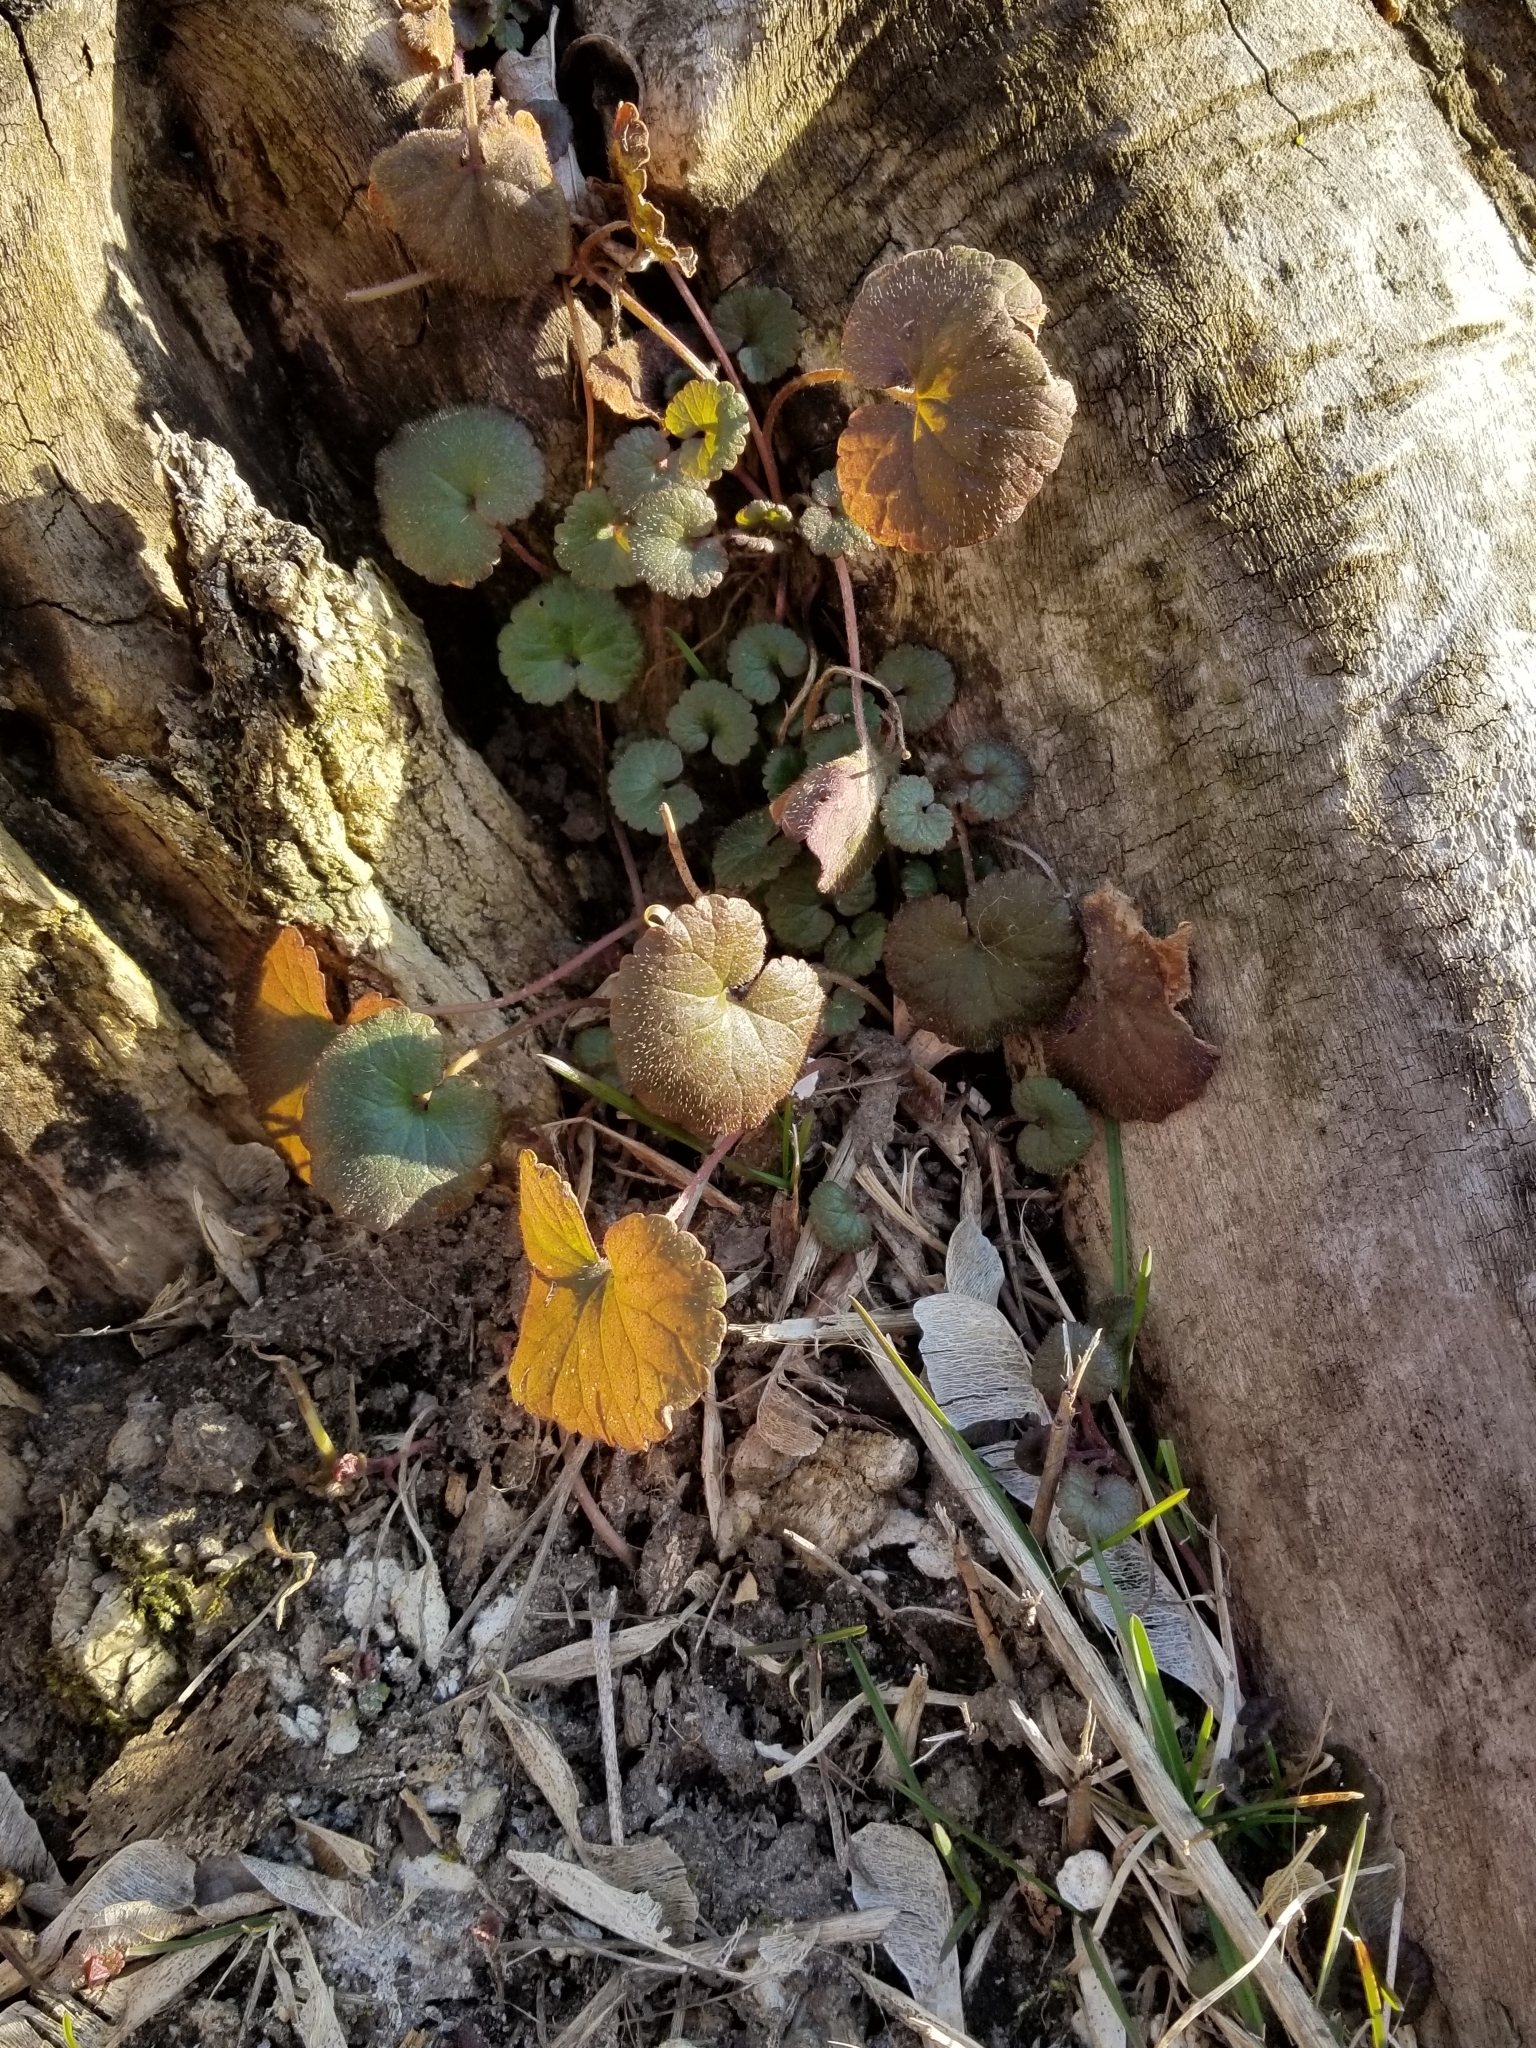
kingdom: Plantae
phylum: Tracheophyta
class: Magnoliopsida
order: Lamiales
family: Lamiaceae
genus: Glechoma
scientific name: Glechoma hederacea
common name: Ground ivy
